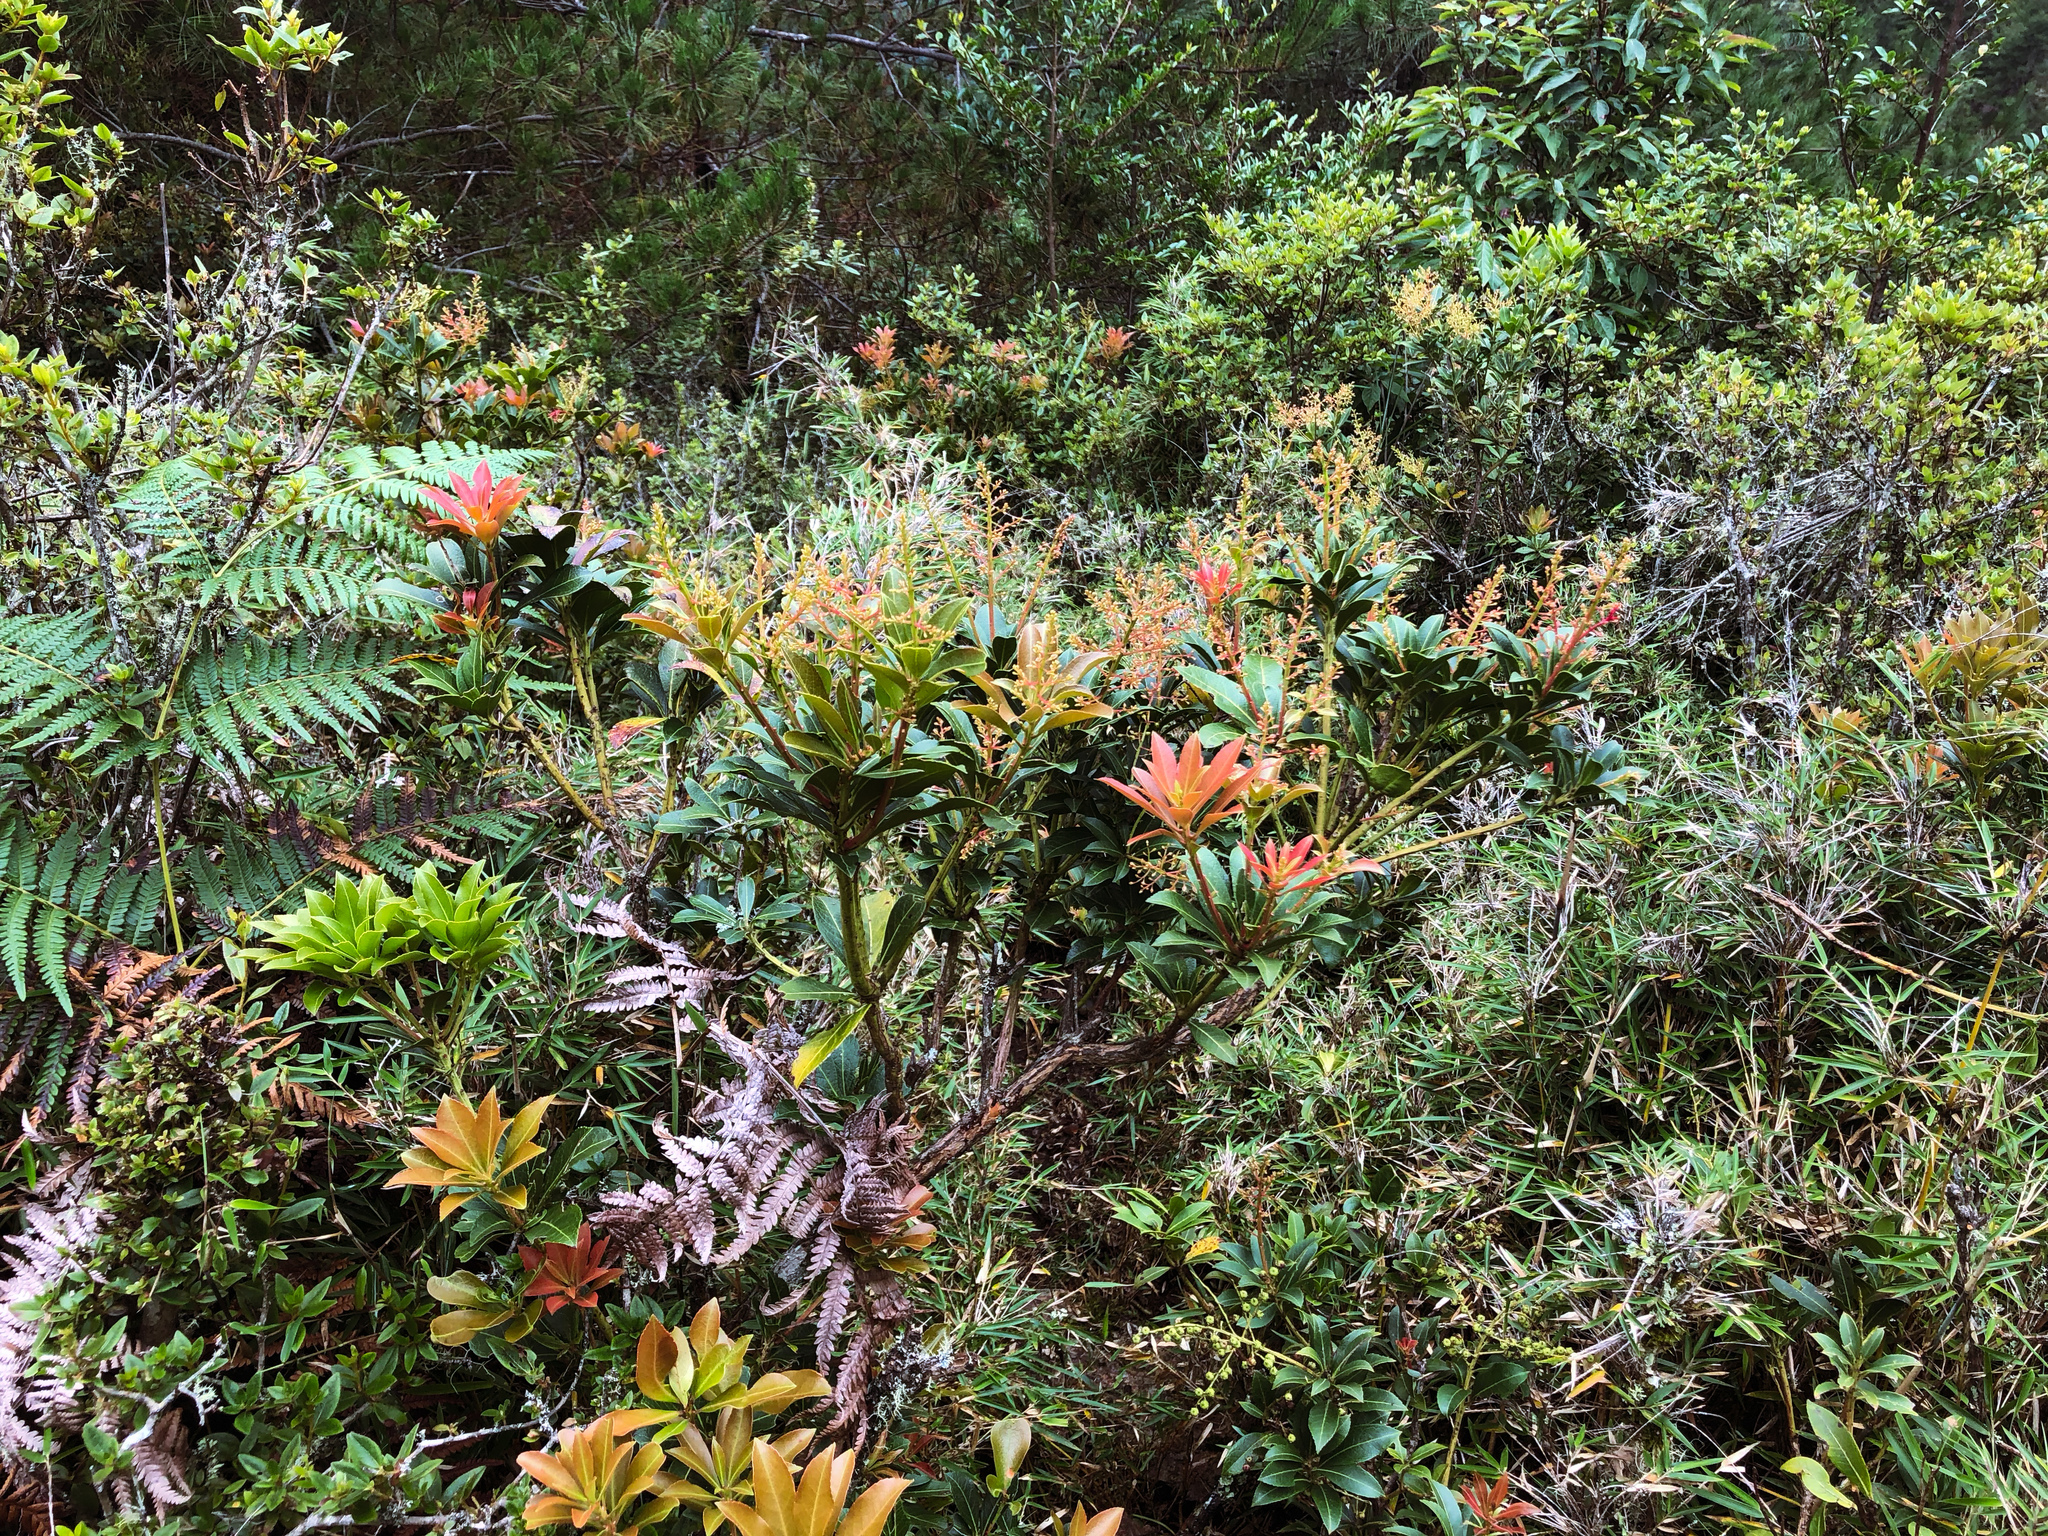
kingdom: Plantae
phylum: Tracheophyta
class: Magnoliopsida
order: Ericales
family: Ericaceae
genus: Pieris
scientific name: Pieris japonica
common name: Japanese pieris
